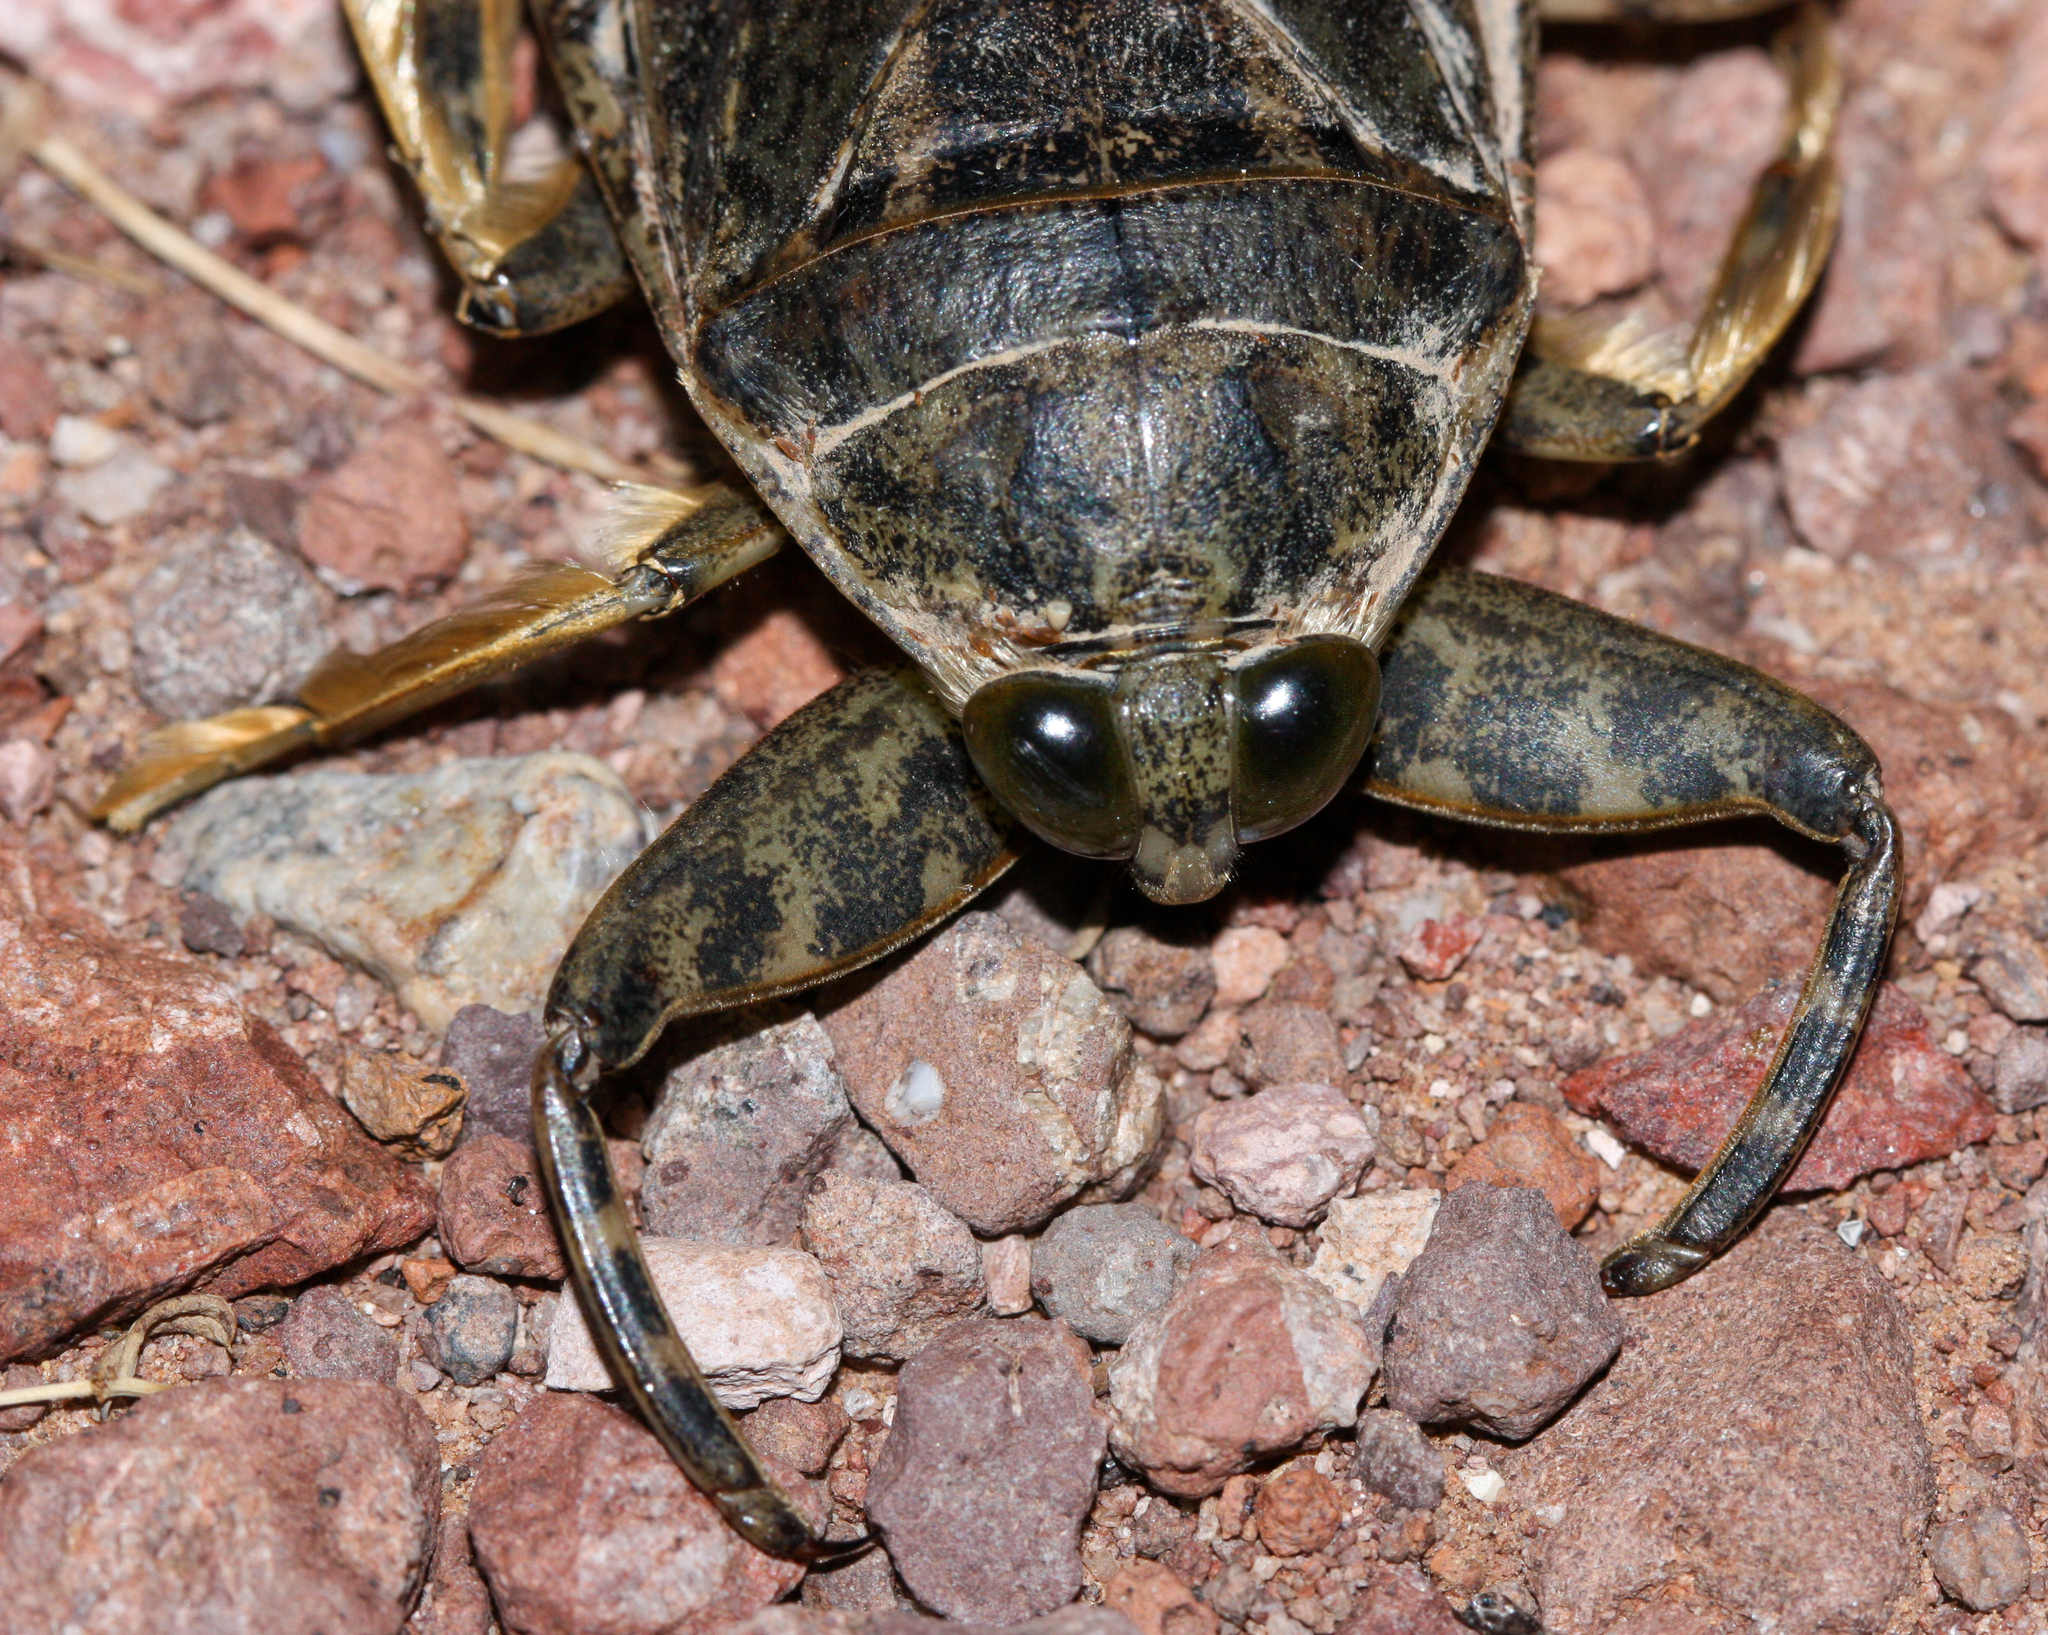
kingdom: Animalia
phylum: Arthropoda
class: Insecta
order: Hemiptera
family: Belostomatidae
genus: Lethocerus
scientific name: Lethocerus medius
